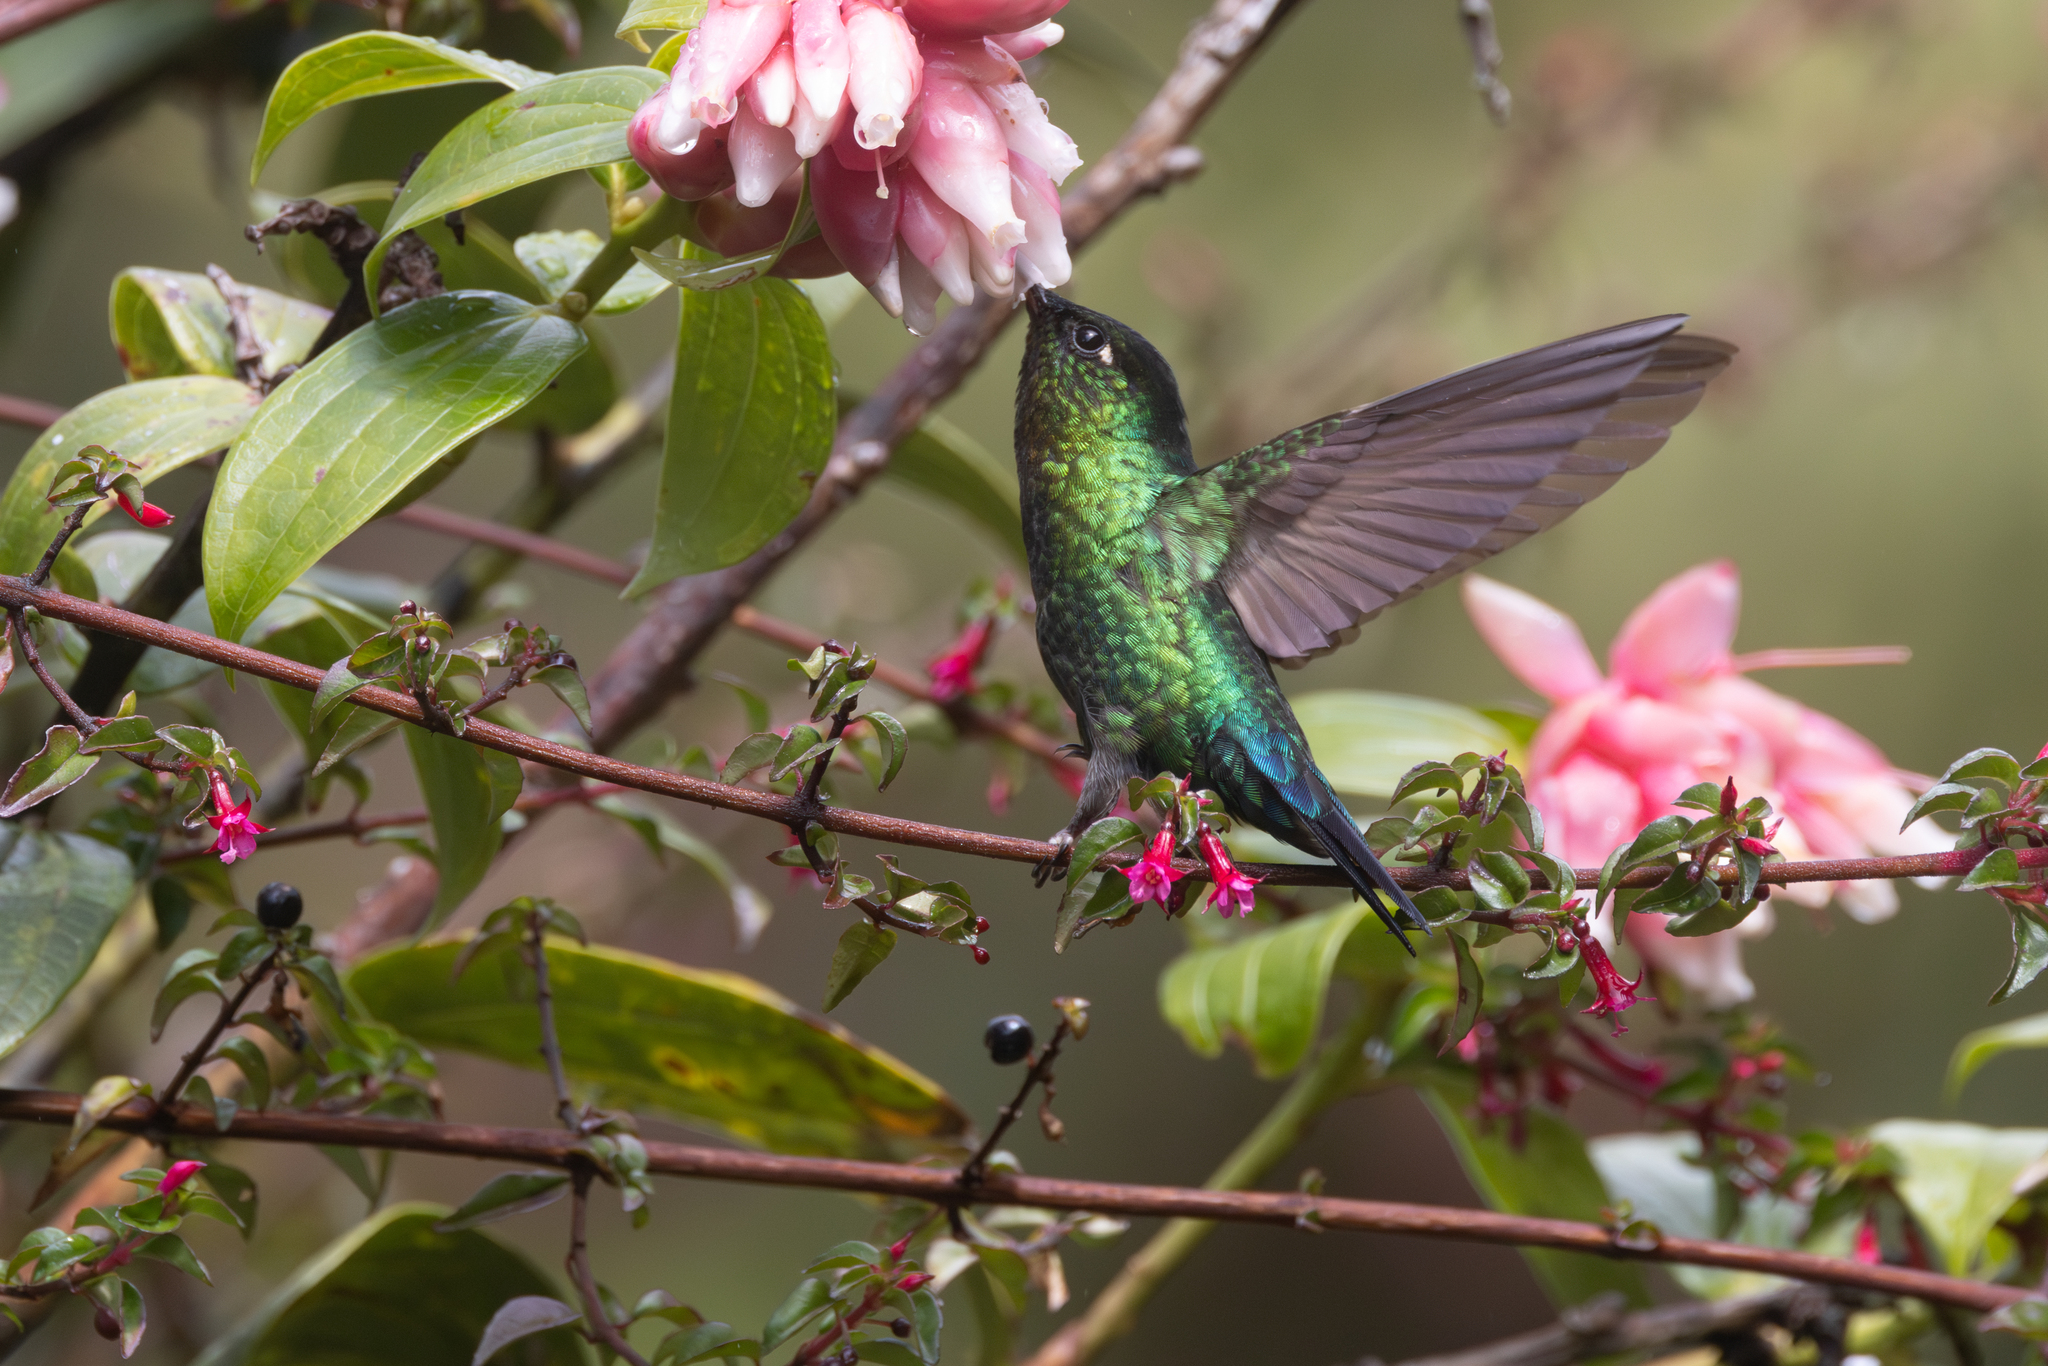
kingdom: Animalia
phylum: Chordata
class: Aves
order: Apodiformes
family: Trochilidae
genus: Panterpe
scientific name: Panterpe insignis
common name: Fiery-throated hummingbird
